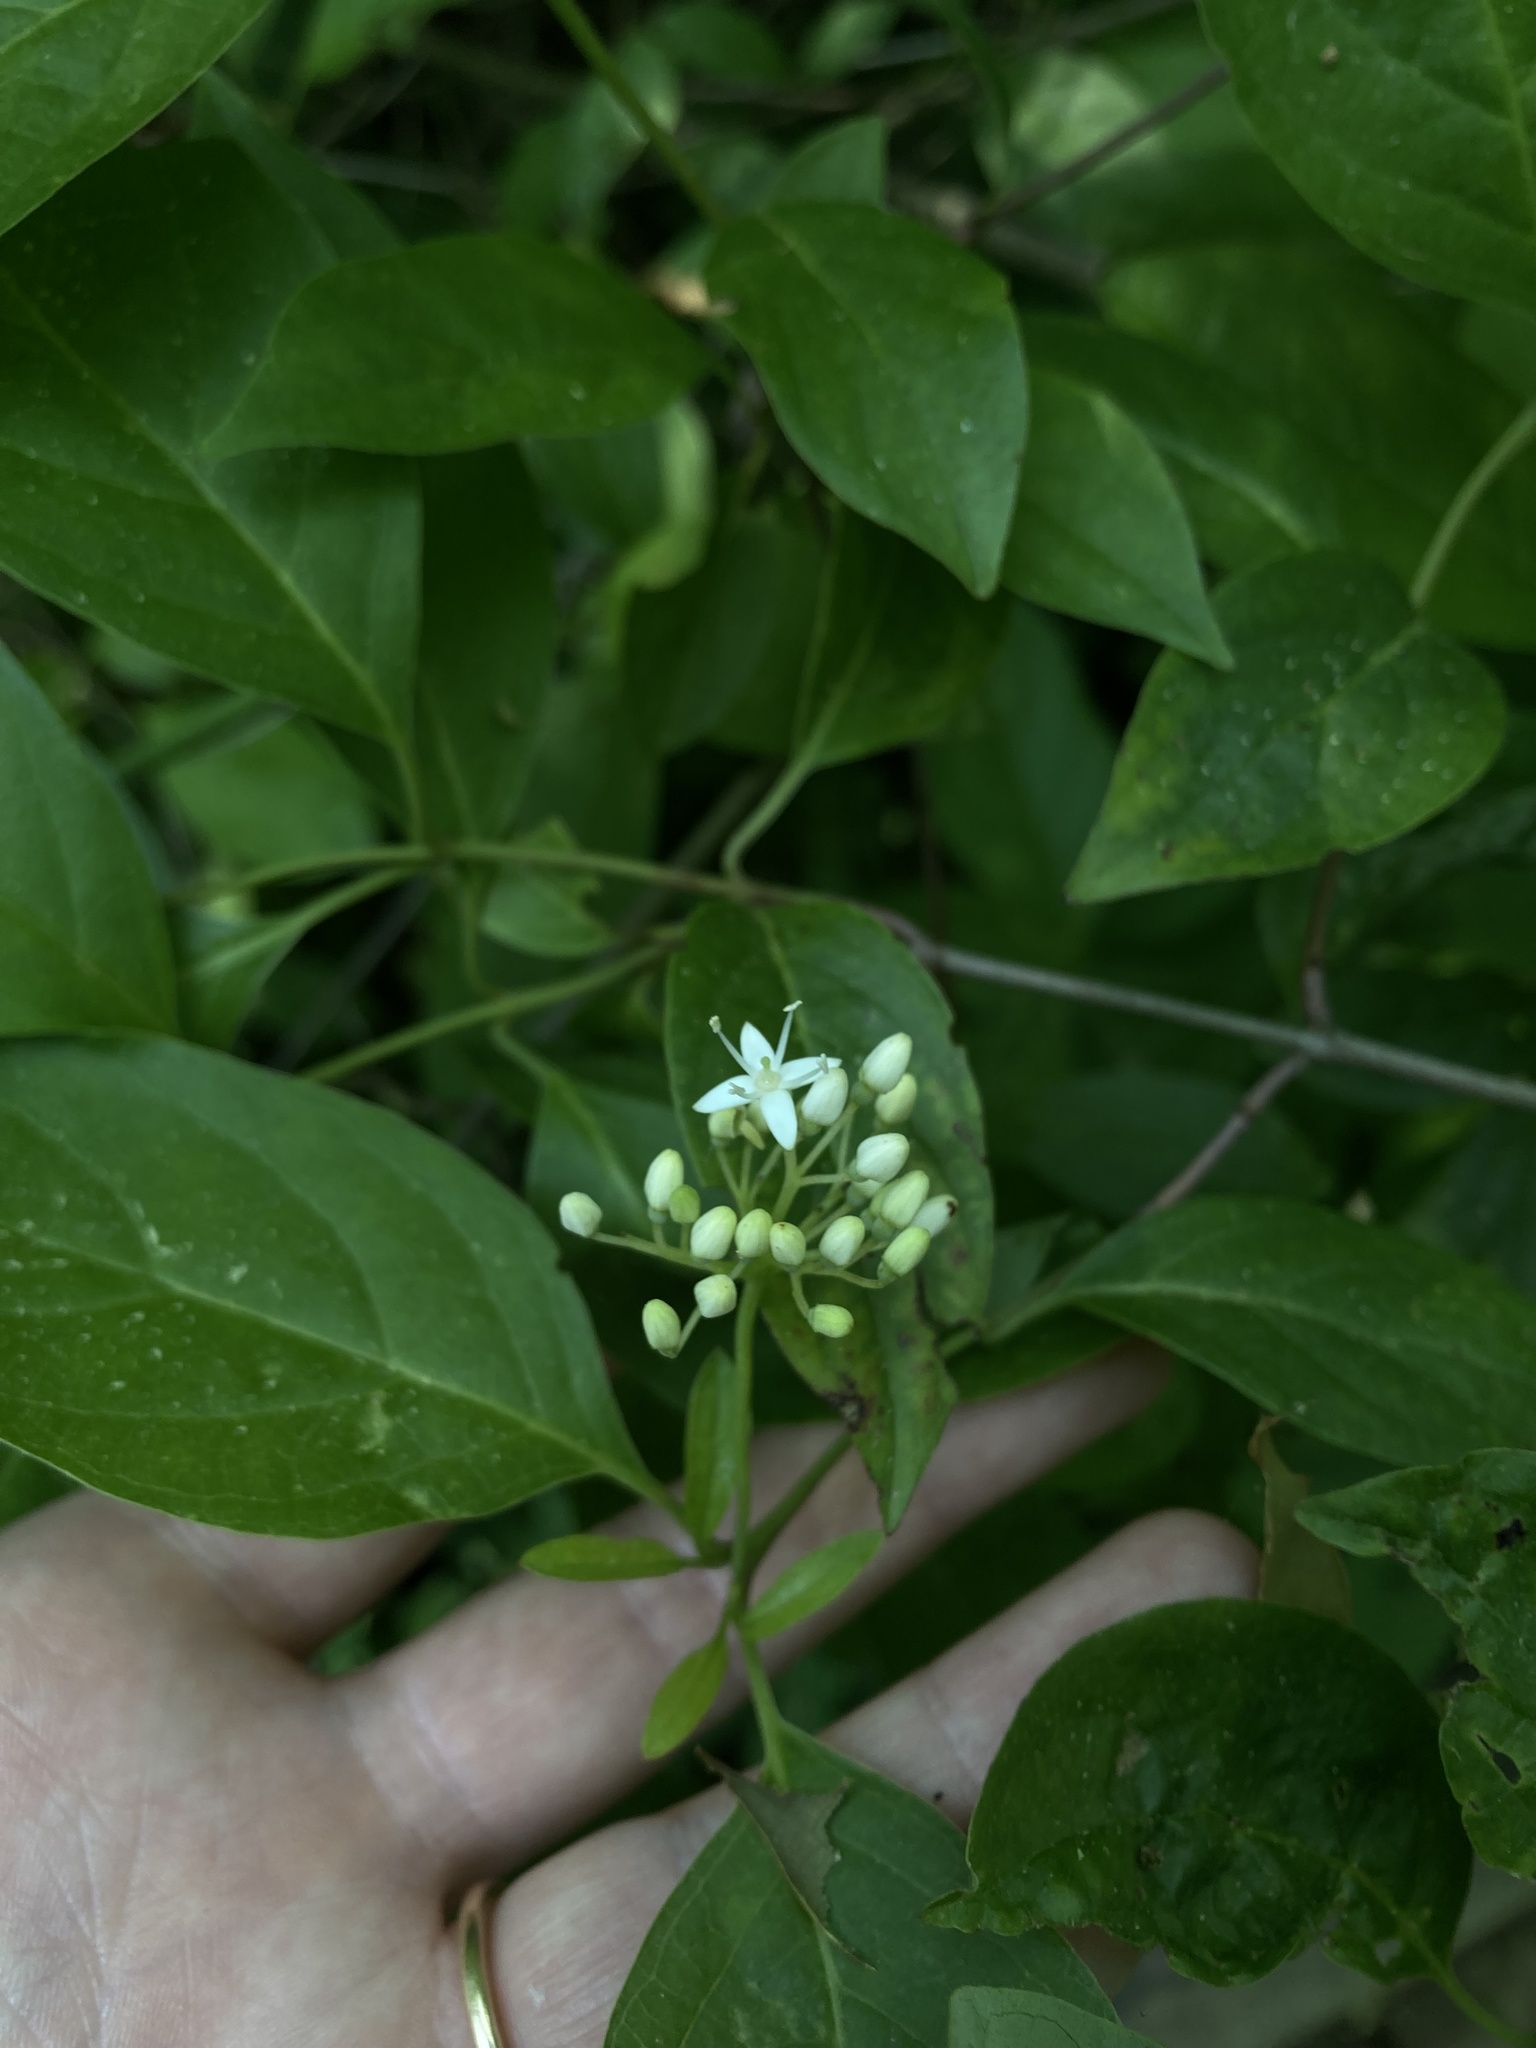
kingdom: Plantae
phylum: Tracheophyta
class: Magnoliopsida
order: Cornales
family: Cornaceae
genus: Cornus
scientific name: Cornus racemosa
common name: Panicled dogwood
